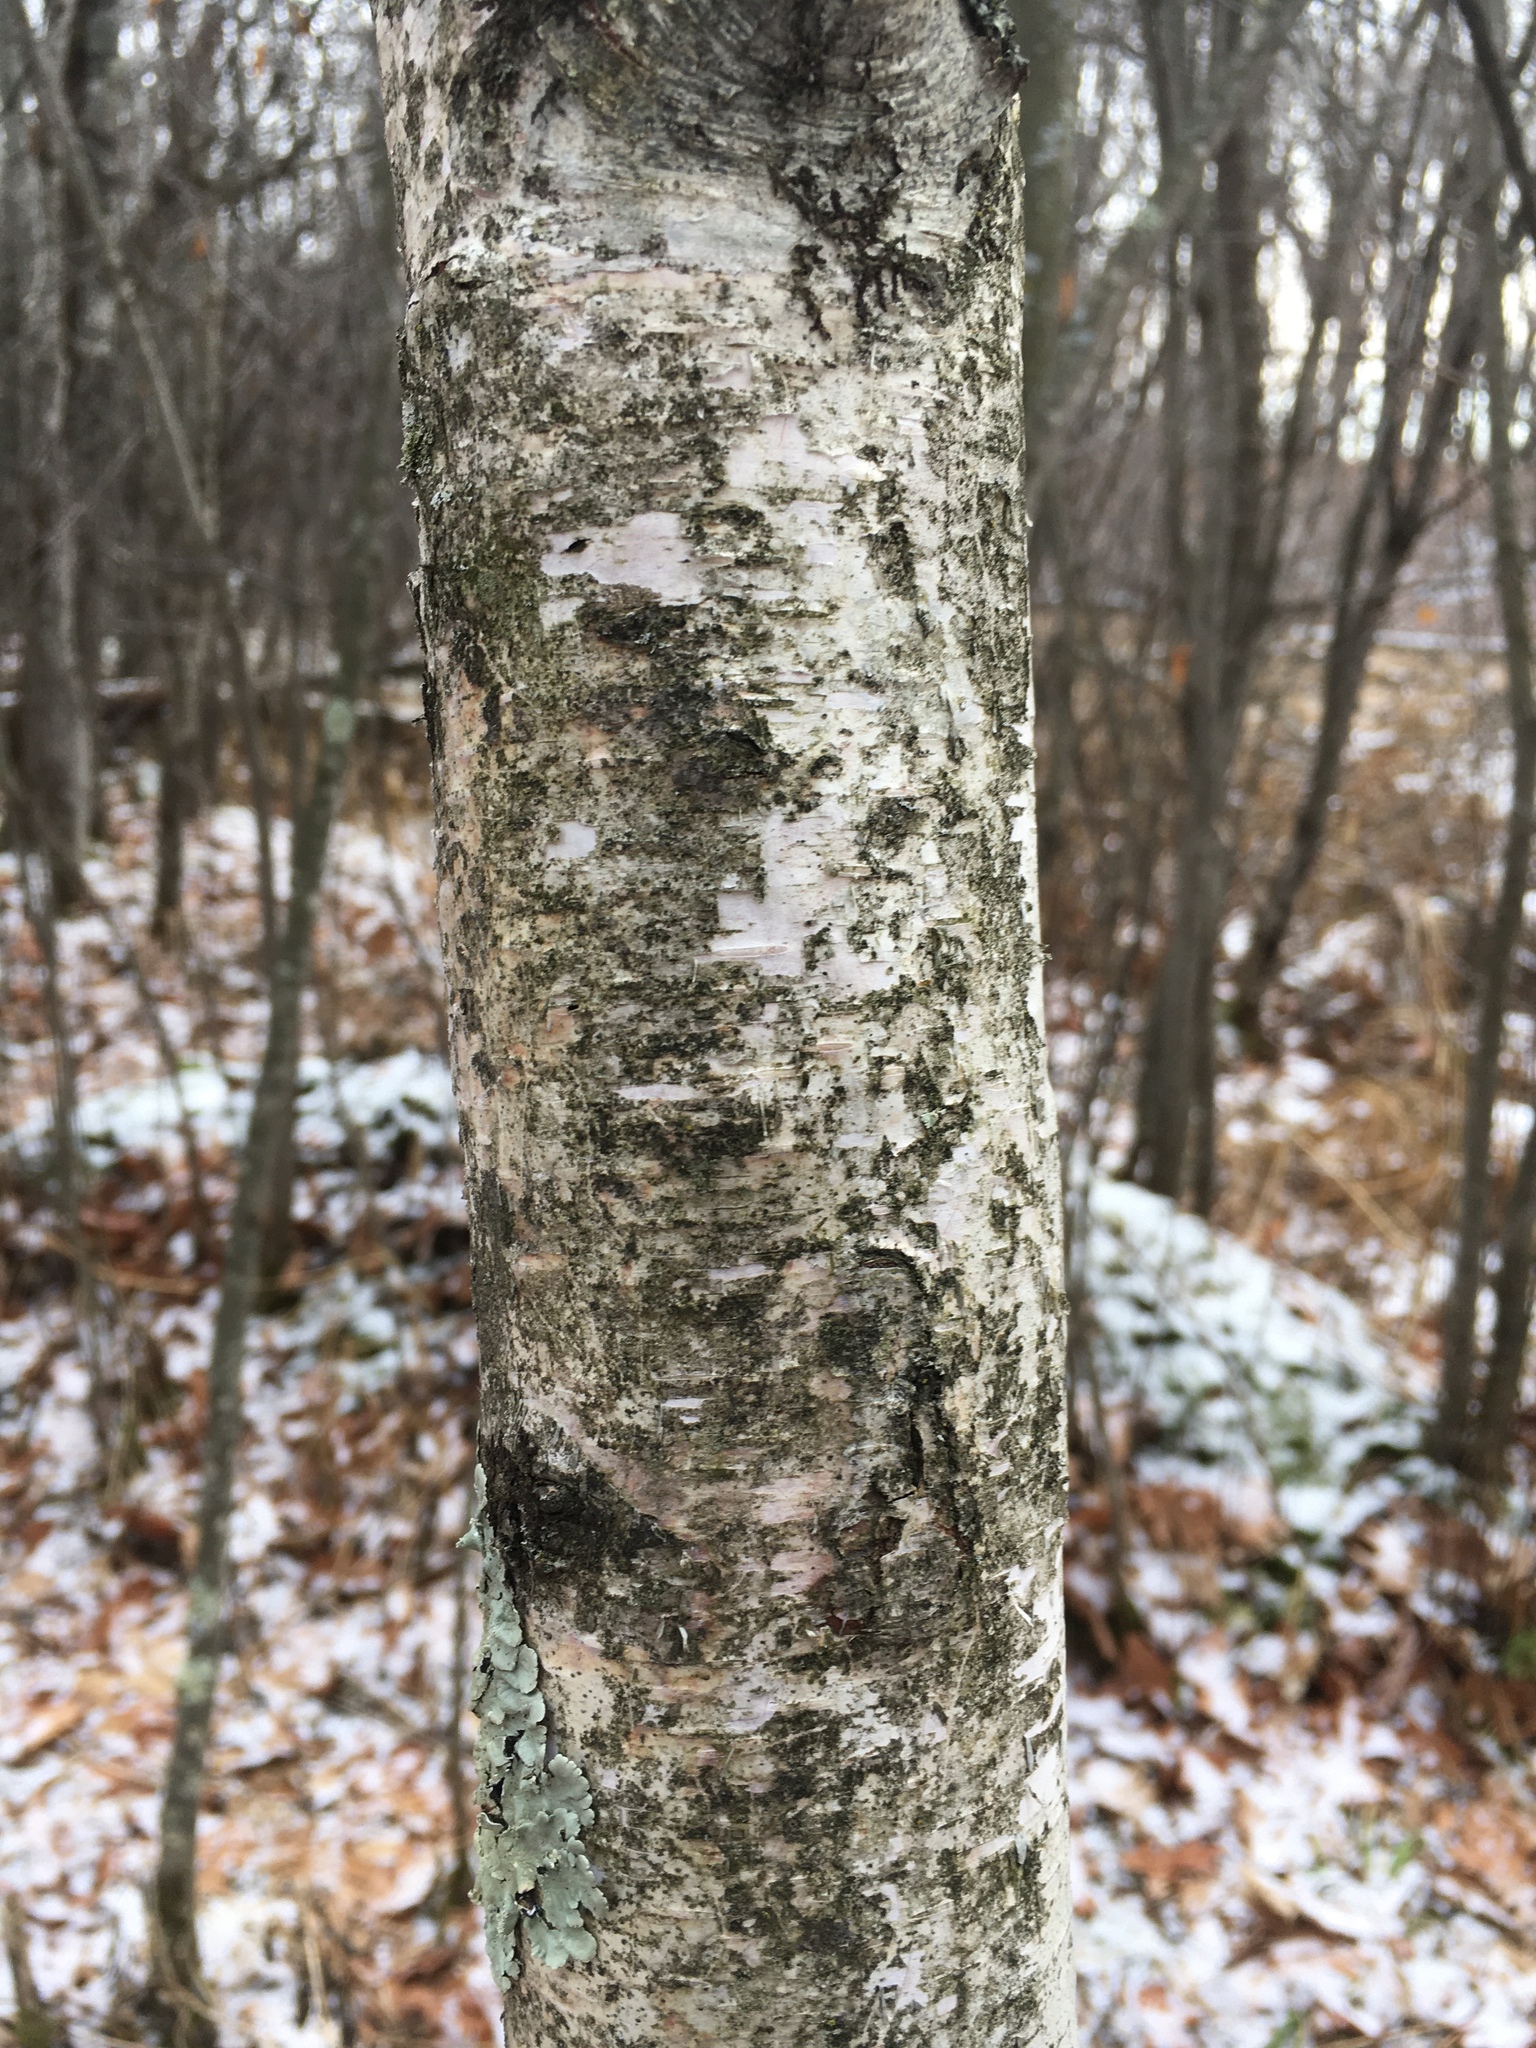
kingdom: Plantae
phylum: Tracheophyta
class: Magnoliopsida
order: Fagales
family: Betulaceae
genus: Betula
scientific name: Betula papyrifera
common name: Paper birch
